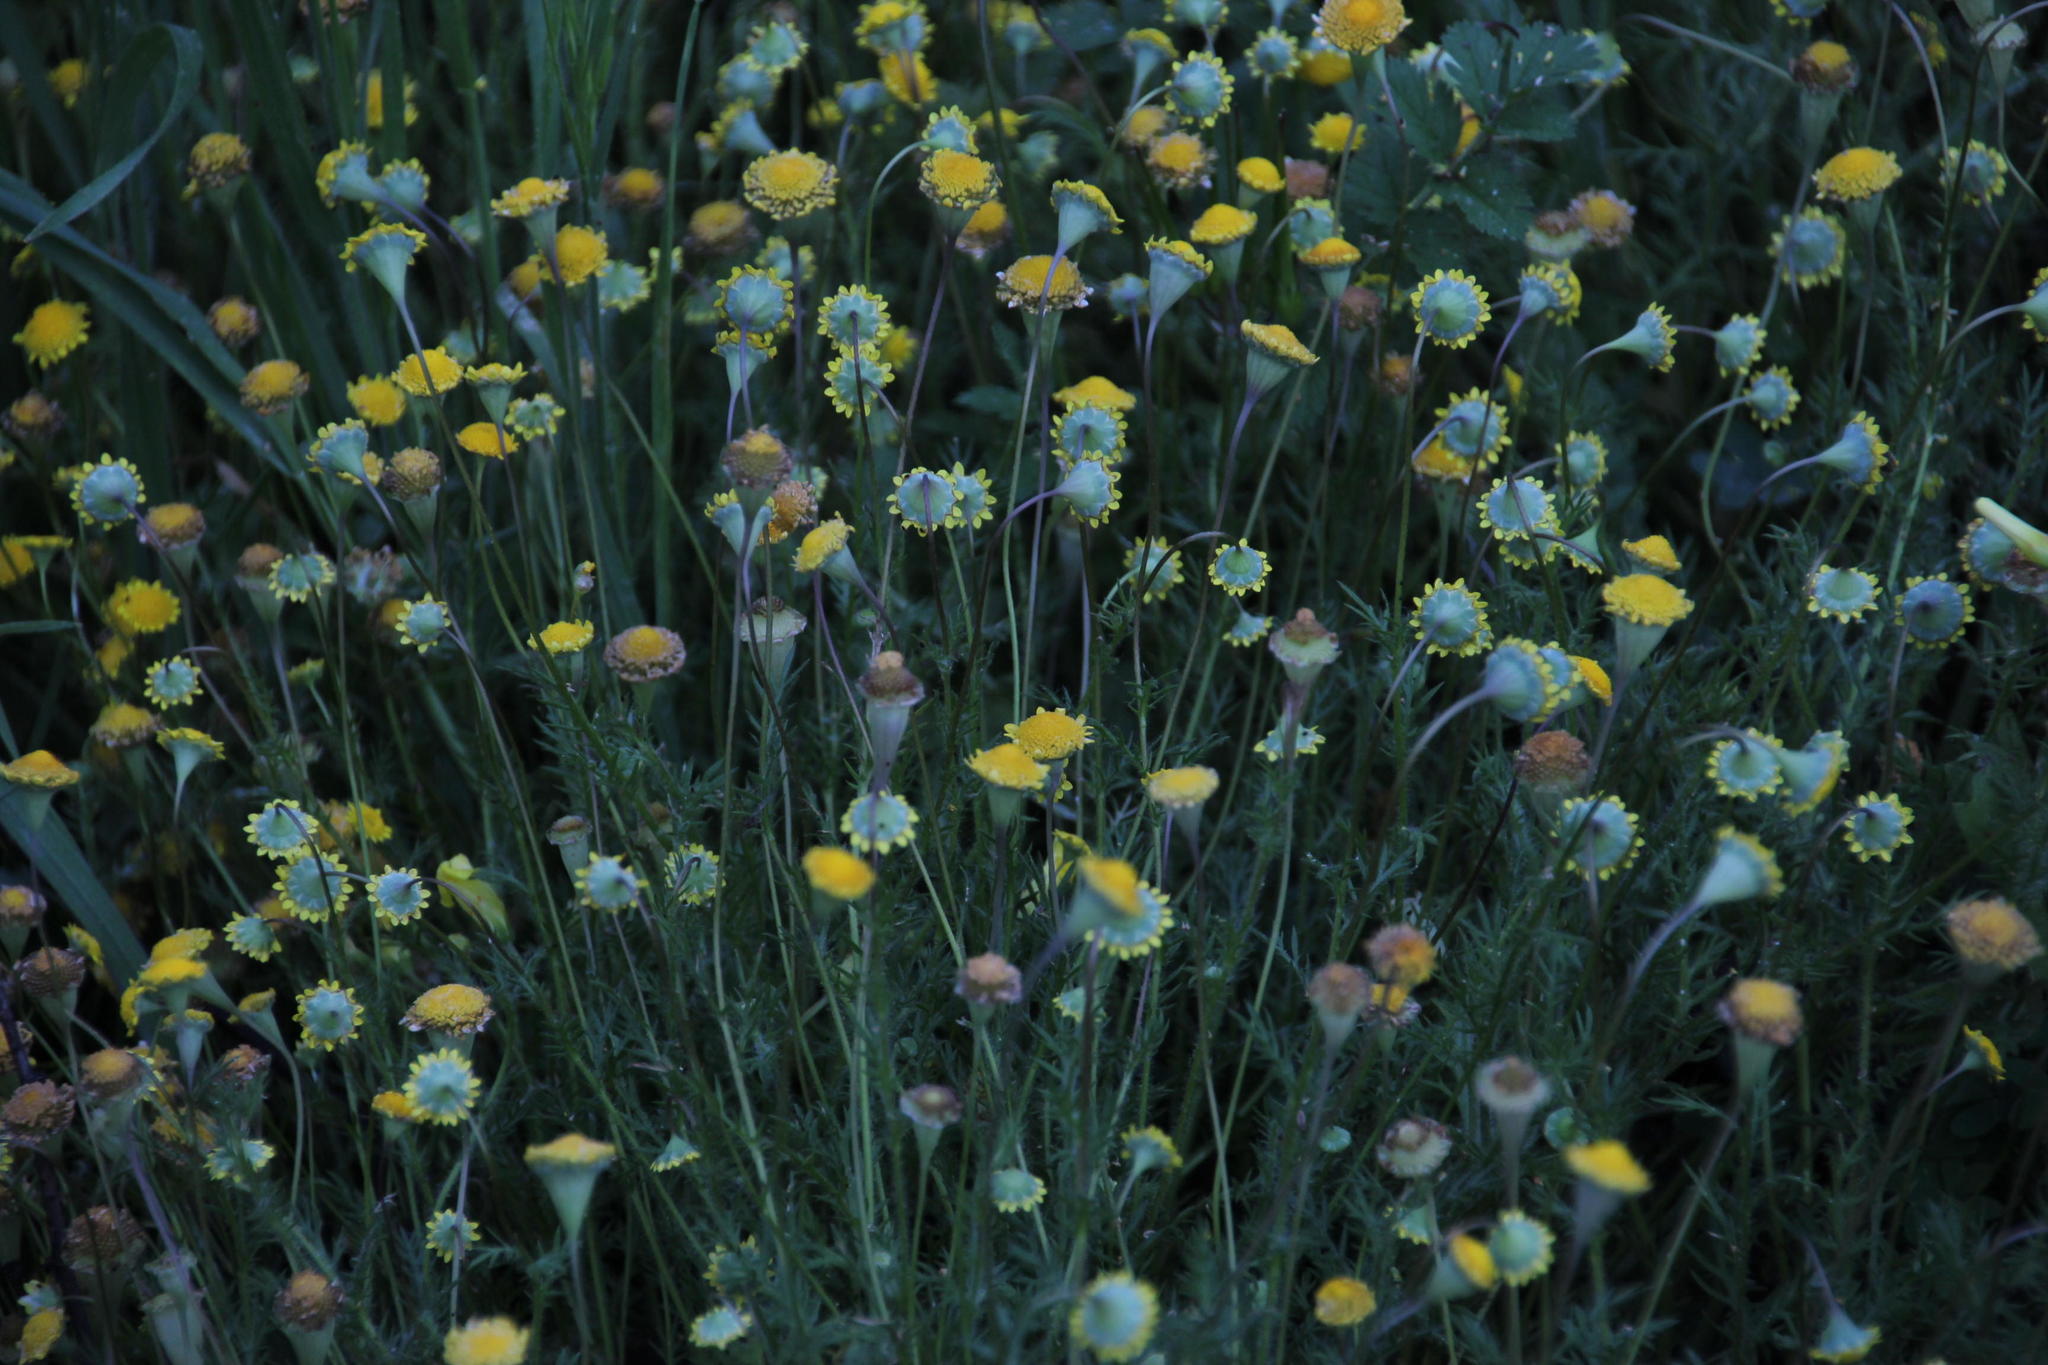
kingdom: Plantae
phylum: Tracheophyta
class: Magnoliopsida
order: Asterales
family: Asteraceae
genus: Cotula
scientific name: Cotula pruinosa
